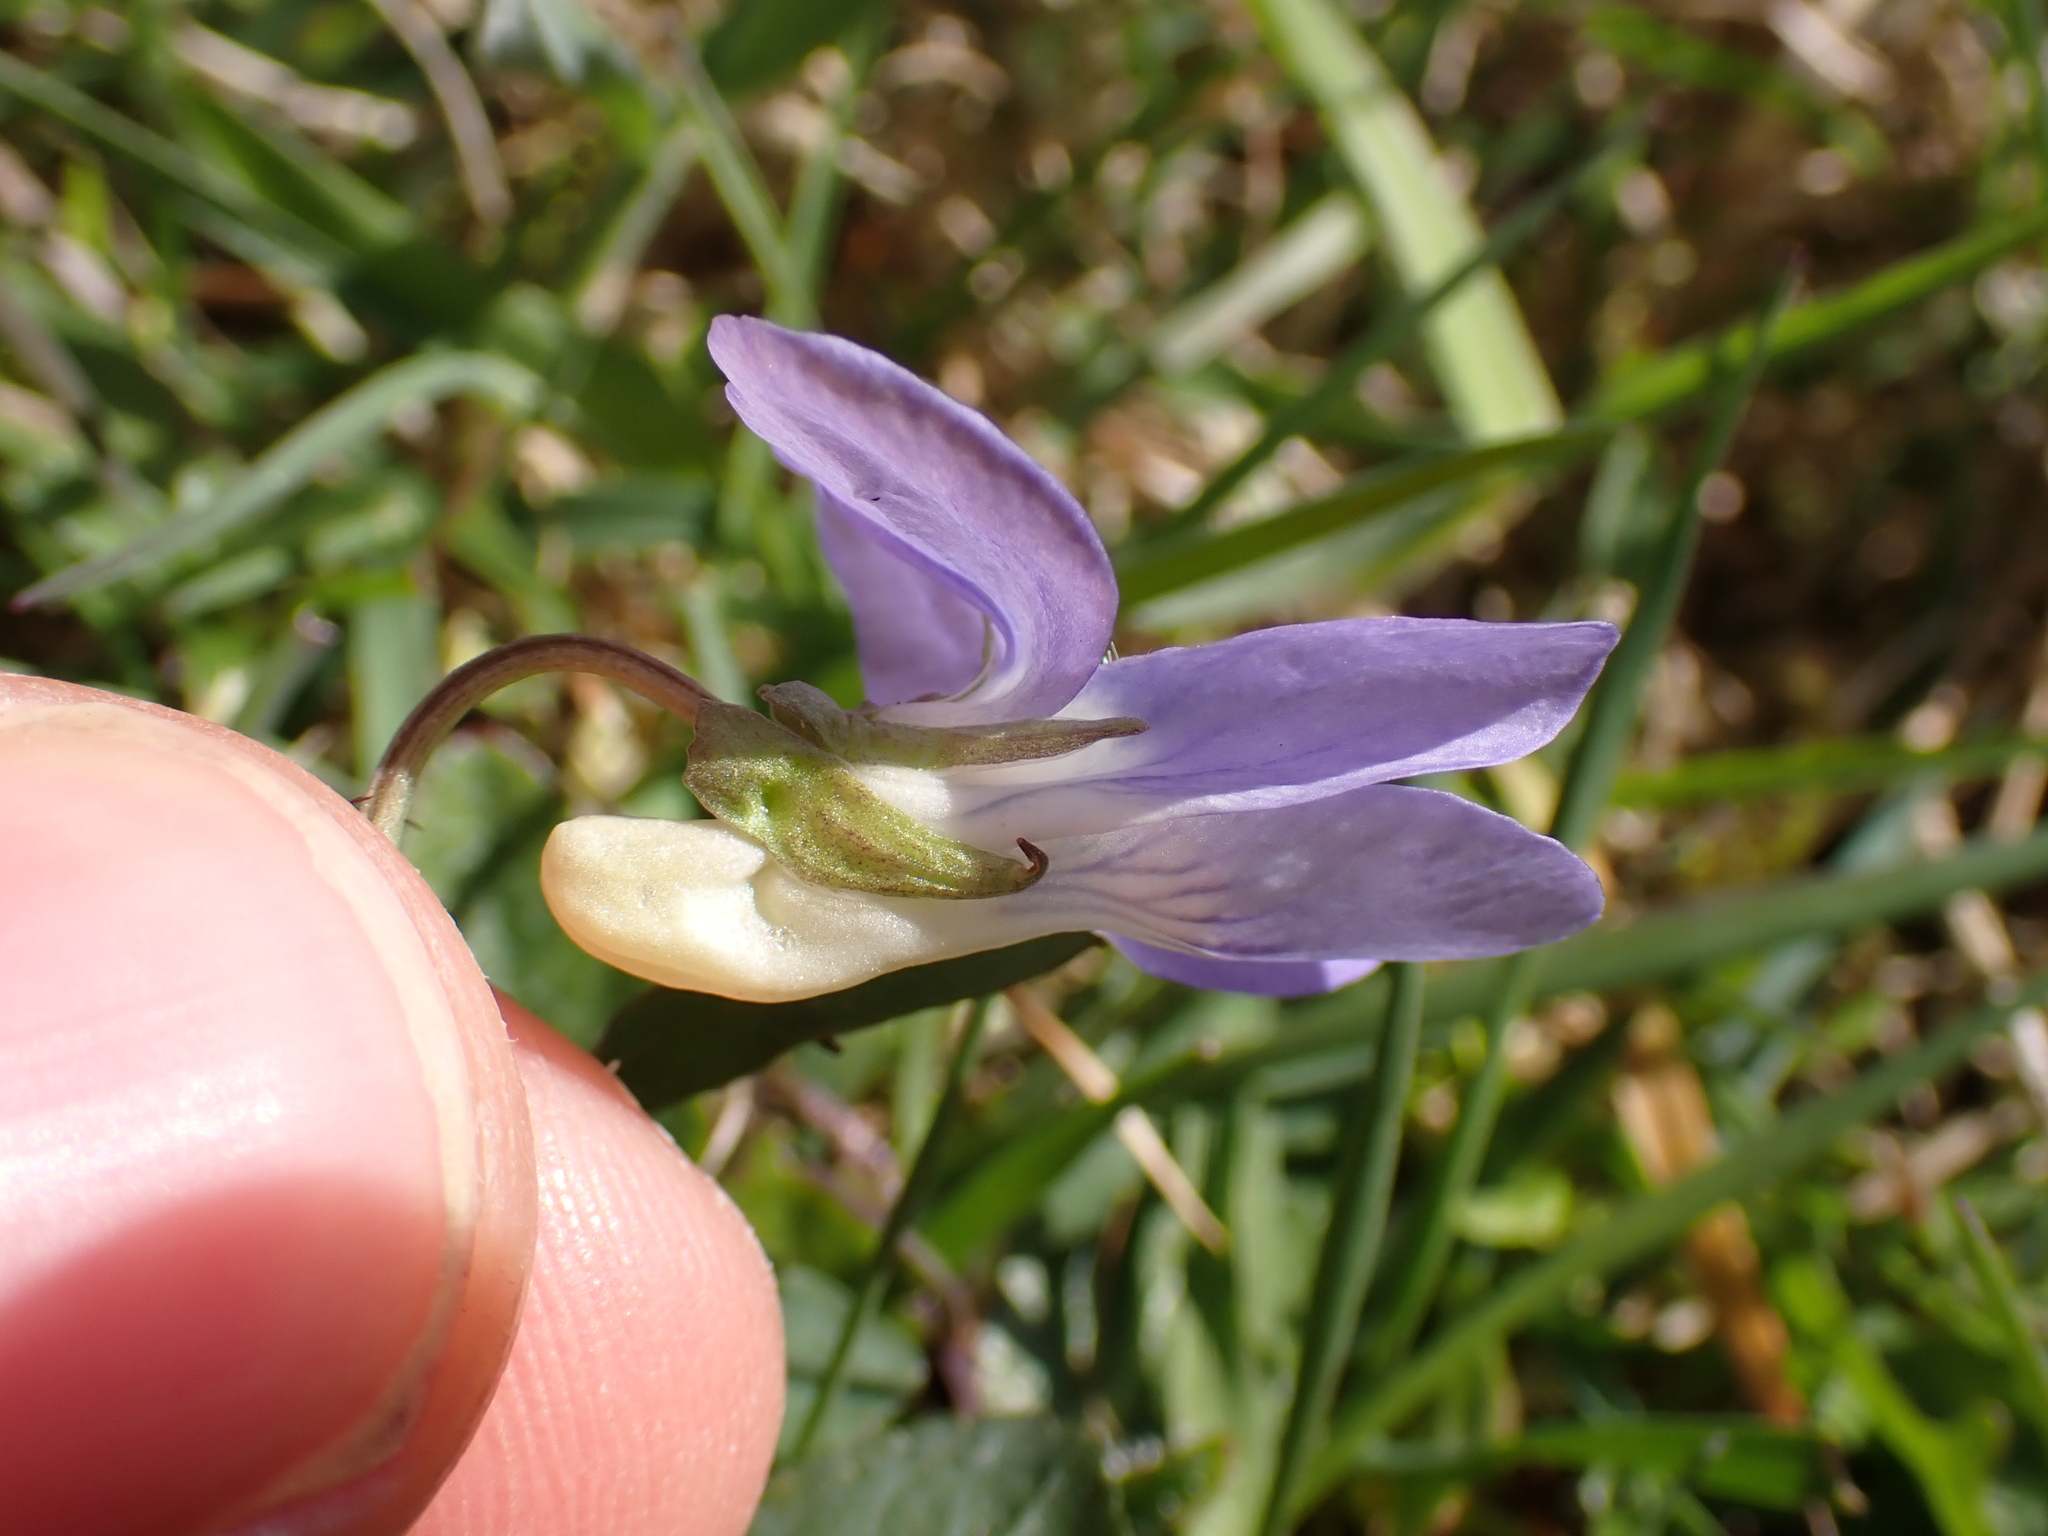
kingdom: Plantae
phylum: Tracheophyta
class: Magnoliopsida
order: Malpighiales
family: Violaceae
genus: Viola
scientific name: Viola riviniana
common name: Common dog-violet
